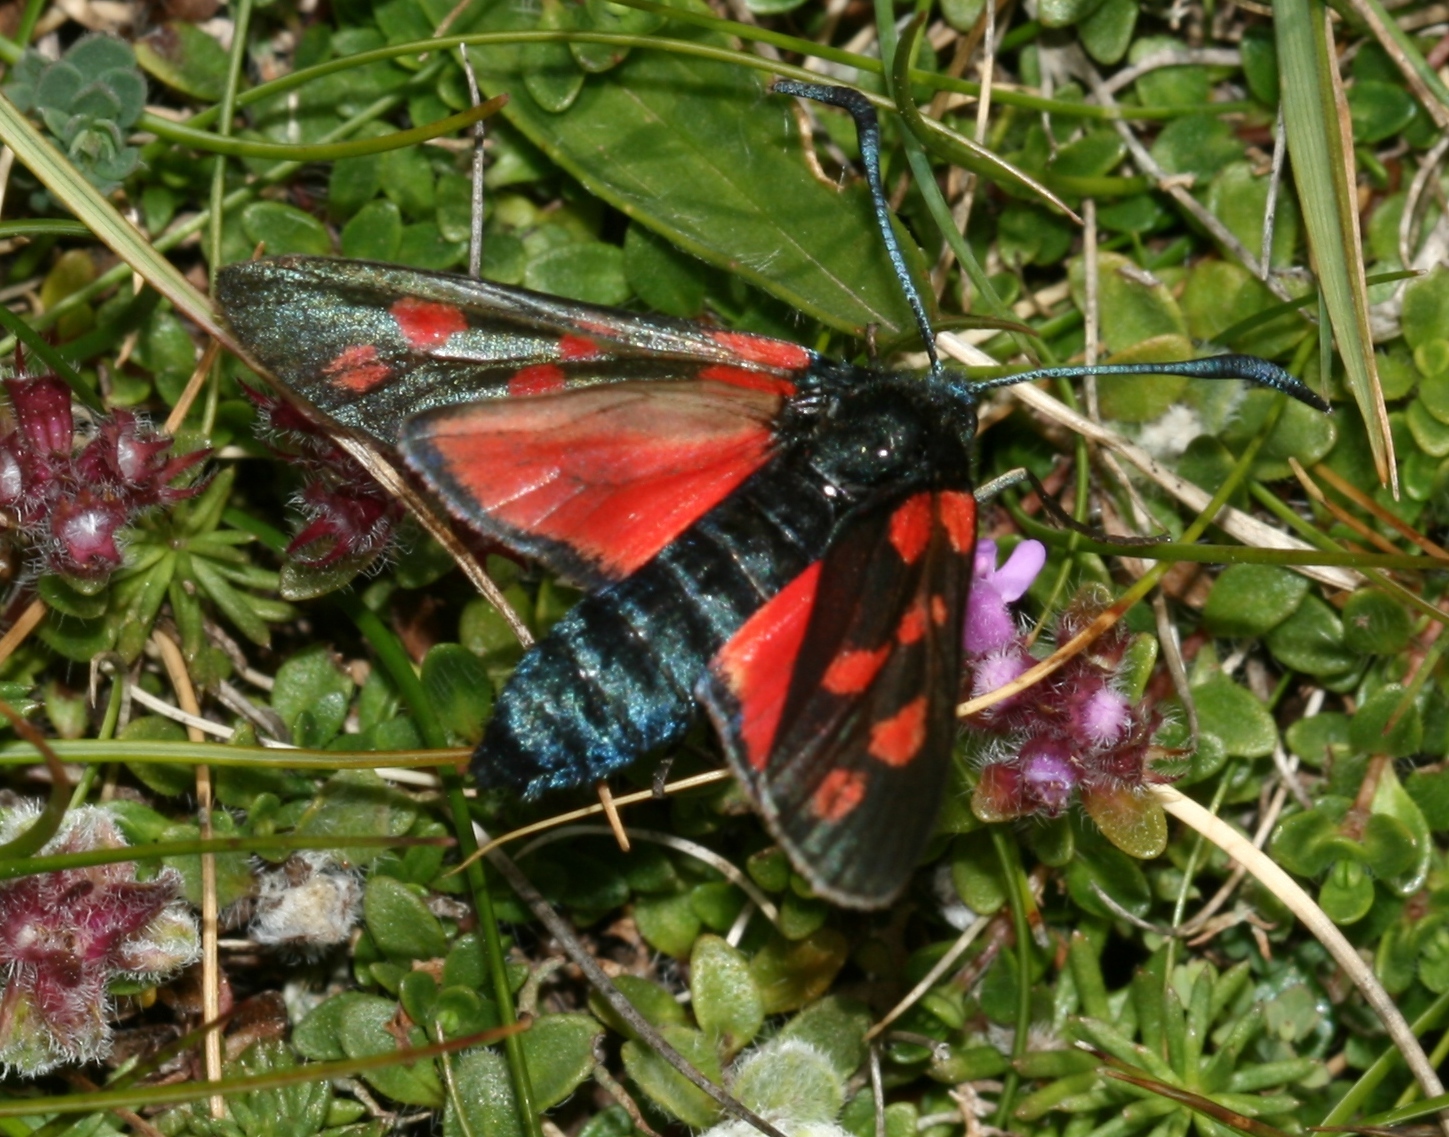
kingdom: Animalia
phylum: Arthropoda
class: Insecta
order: Lepidoptera
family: Zygaenidae
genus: Zygaena
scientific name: Zygaena filipendulae
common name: Six-spot burnet
